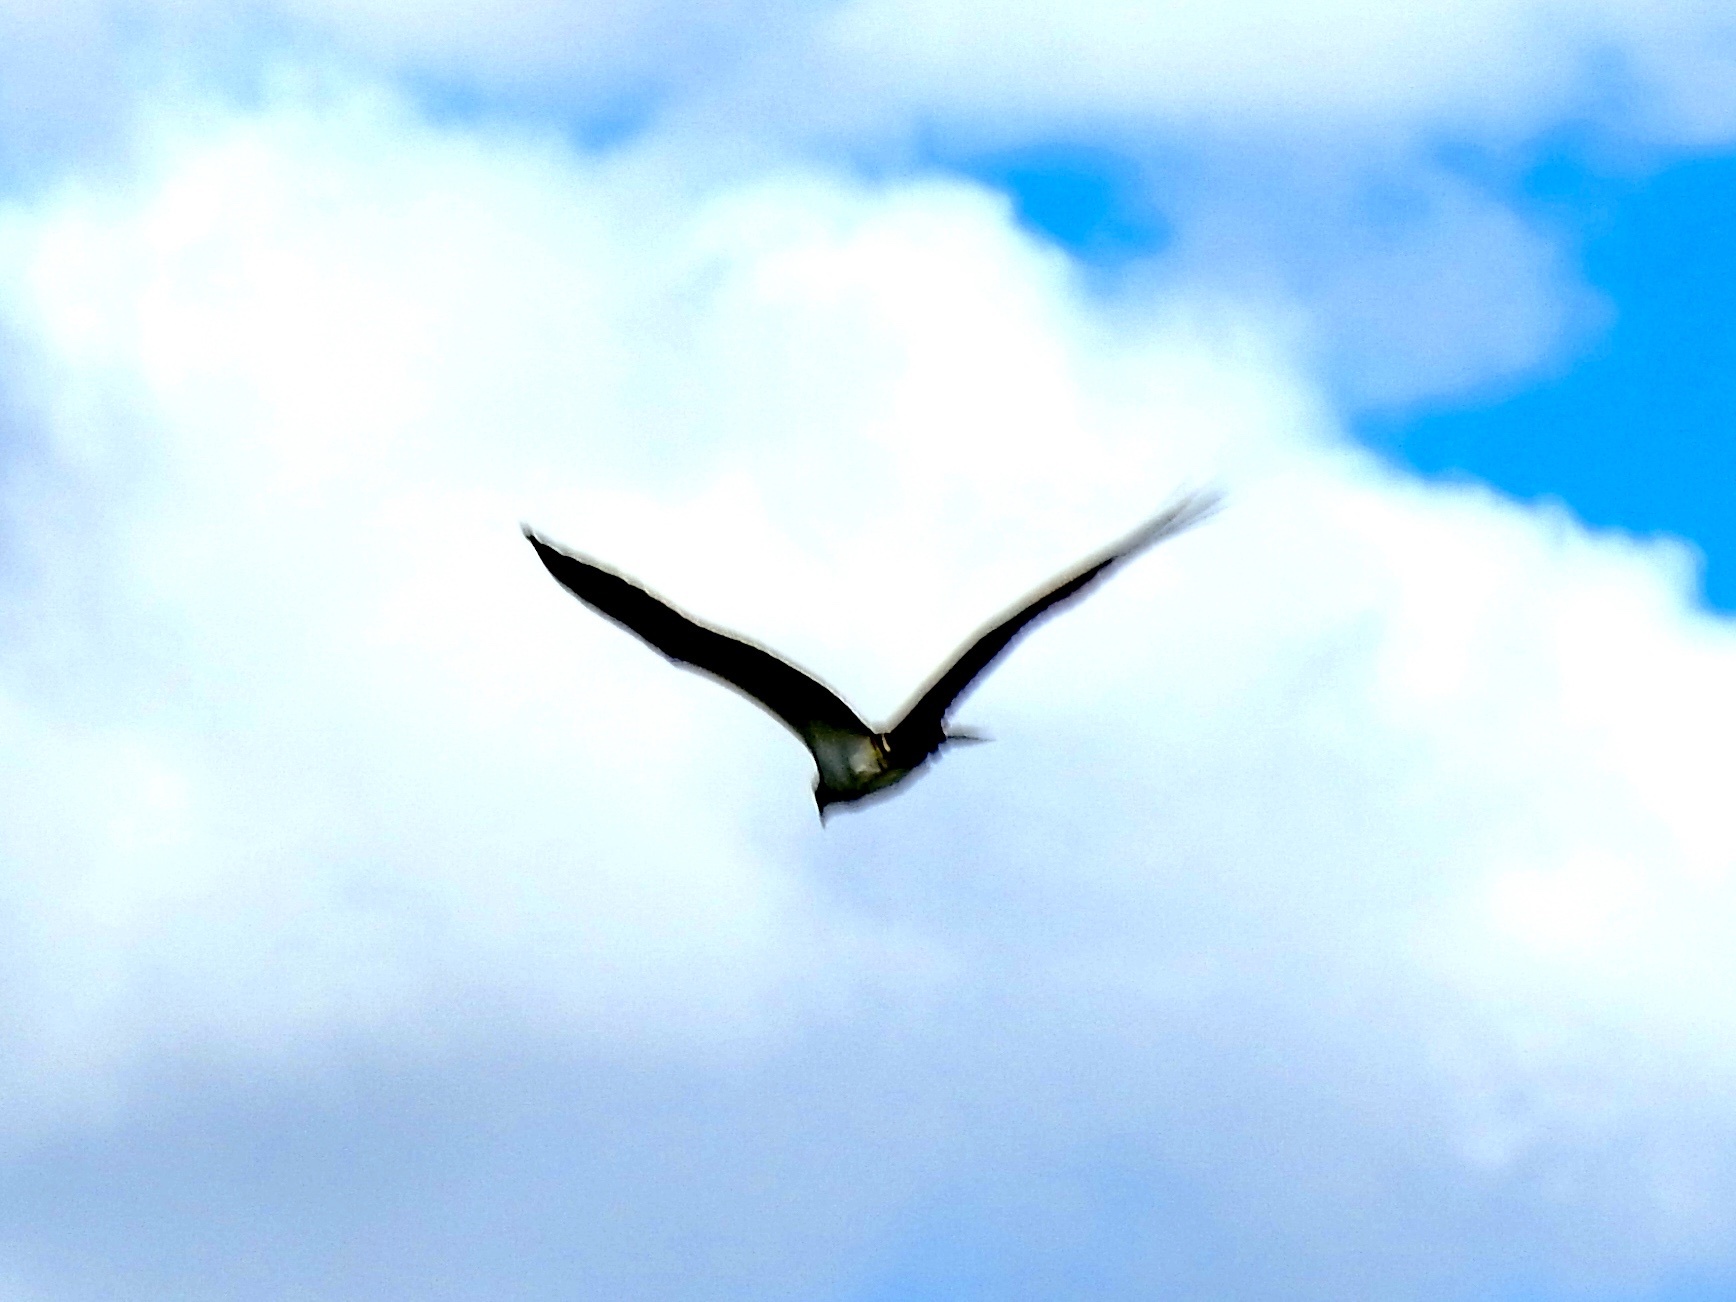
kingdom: Animalia
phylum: Chordata
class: Aves
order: Accipitriformes
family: Pandionidae
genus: Pandion
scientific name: Pandion haliaetus
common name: Osprey
